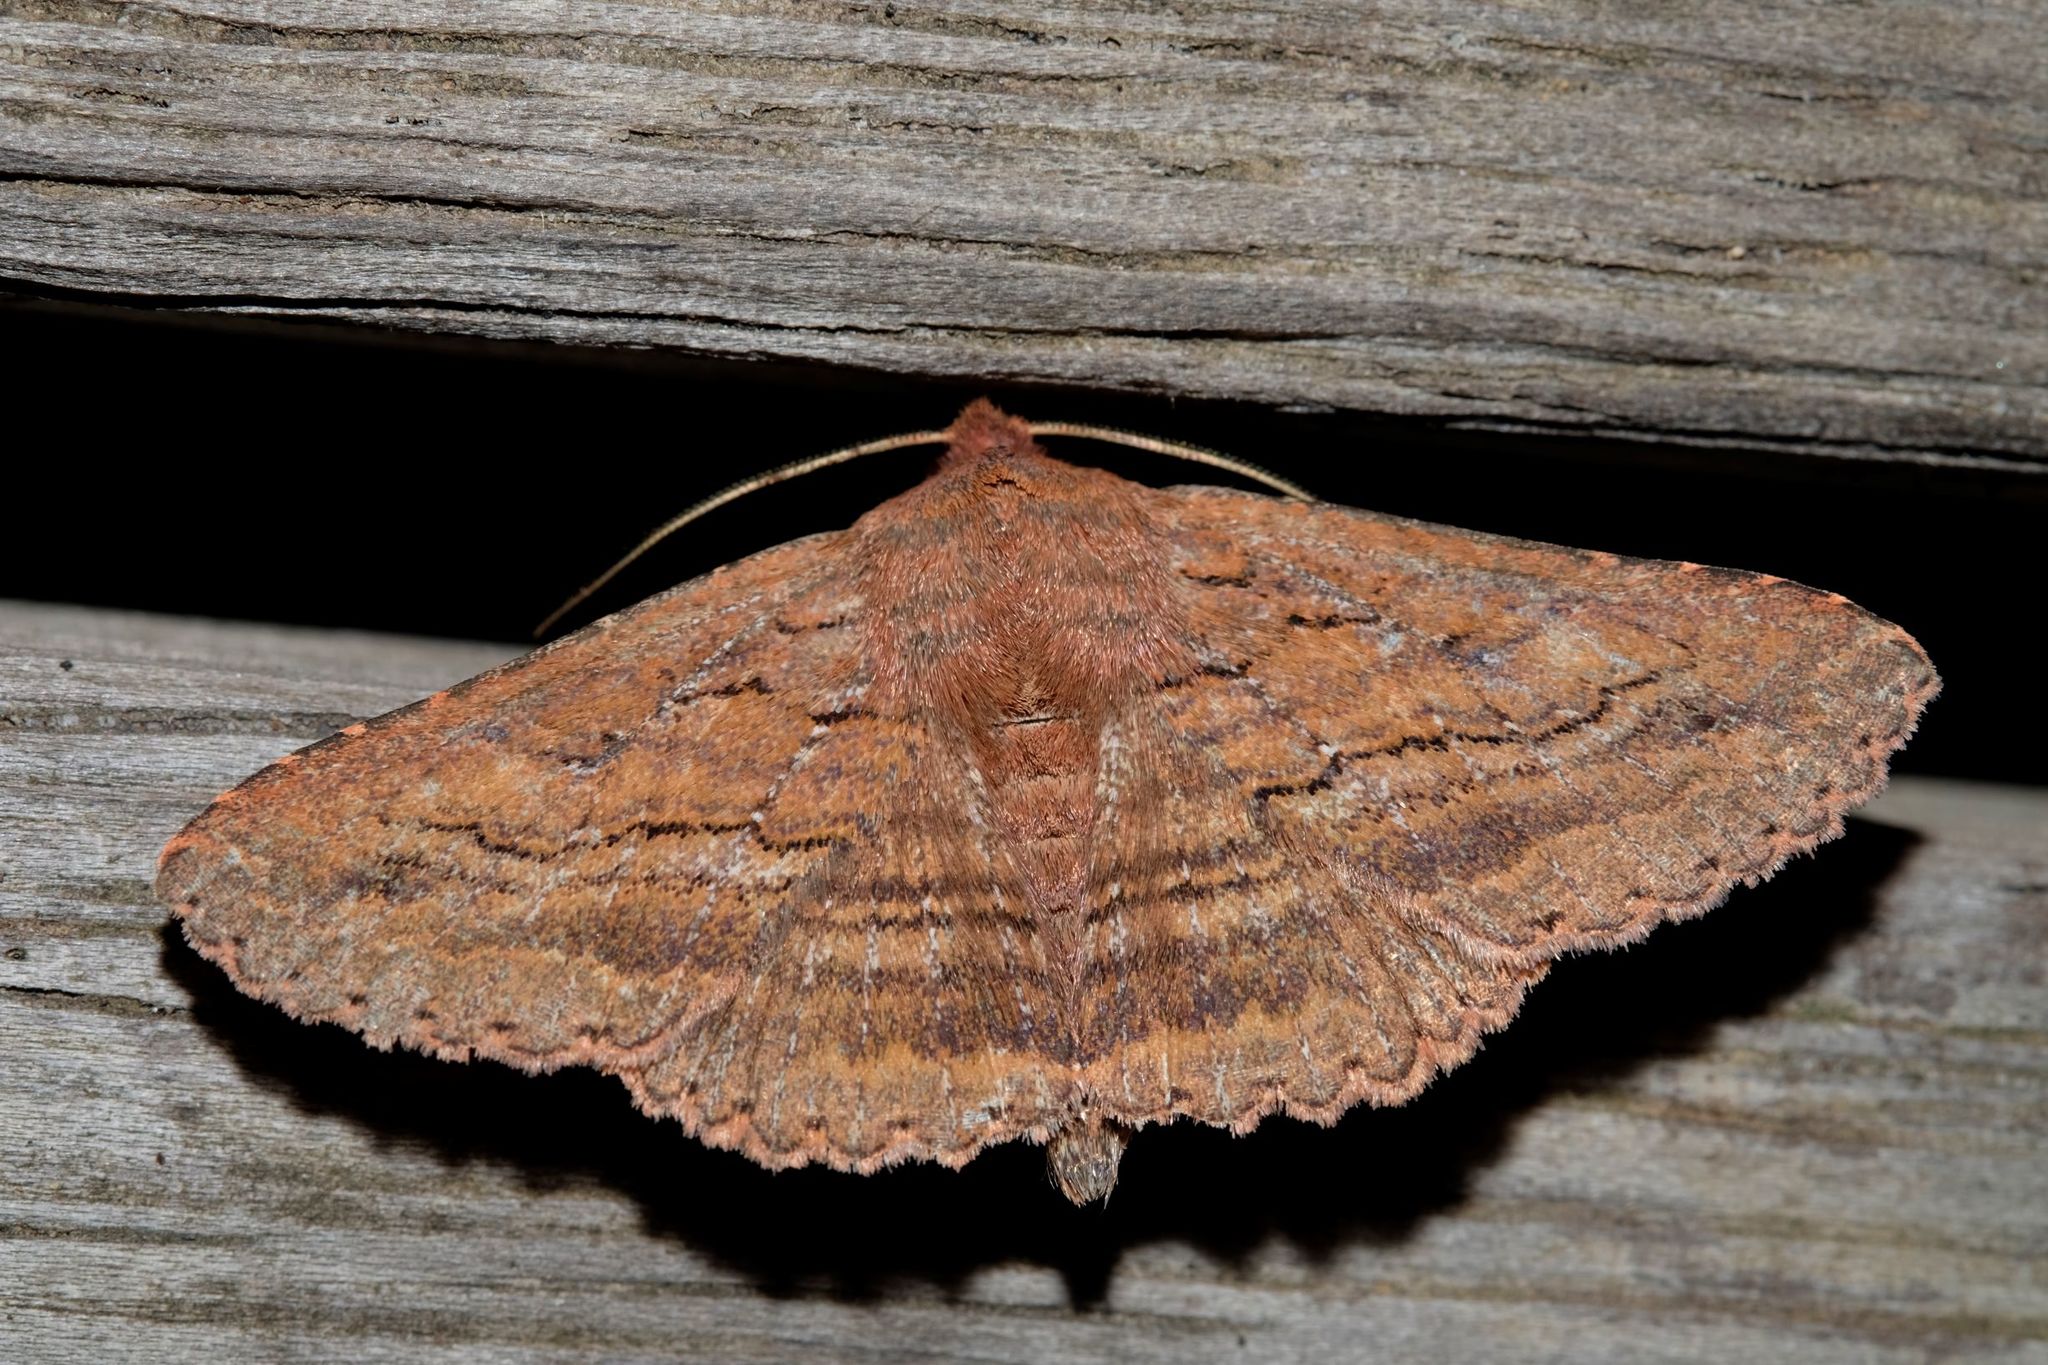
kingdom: Animalia
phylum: Arthropoda
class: Insecta
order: Lepidoptera
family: Erebidae
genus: Praxis
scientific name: Praxis porphyretica
